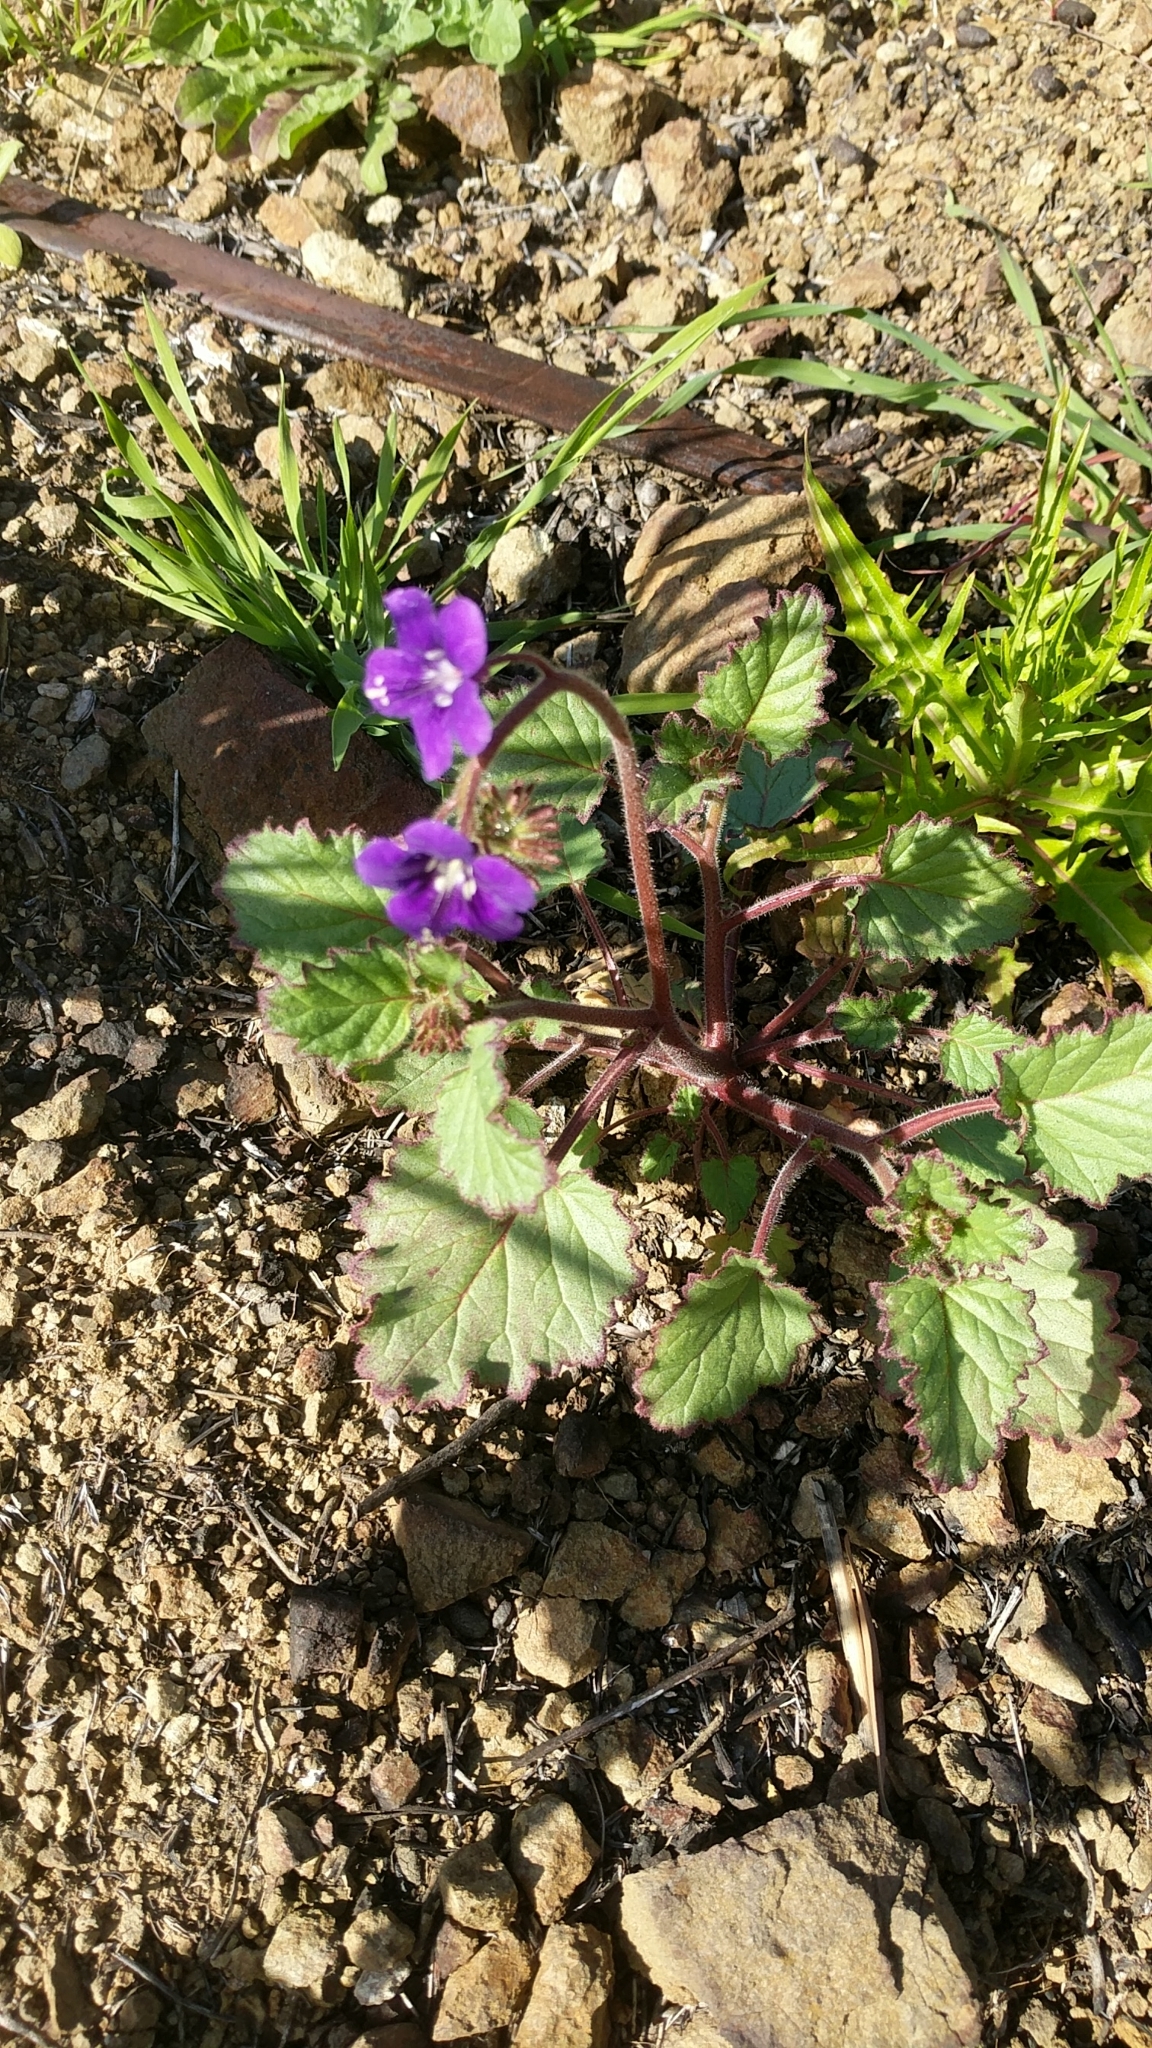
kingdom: Plantae
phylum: Tracheophyta
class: Magnoliopsida
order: Boraginales
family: Hydrophyllaceae
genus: Phacelia
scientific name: Phacelia parryi
